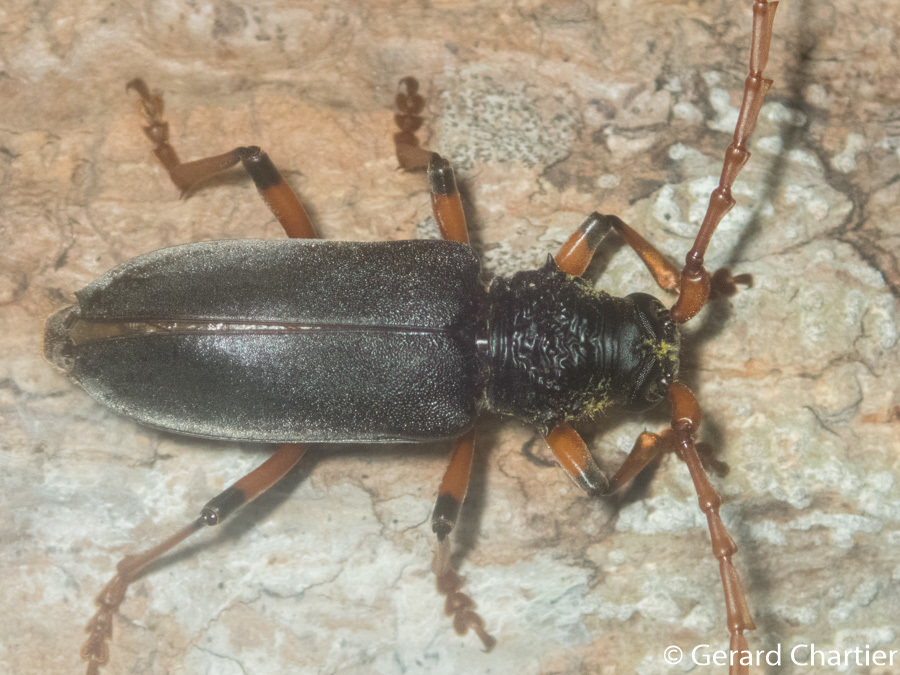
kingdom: Animalia
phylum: Arthropoda
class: Insecta
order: Coleoptera
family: Cerambycidae
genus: Neoplocaederus
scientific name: Neoplocaederus ruficornis
